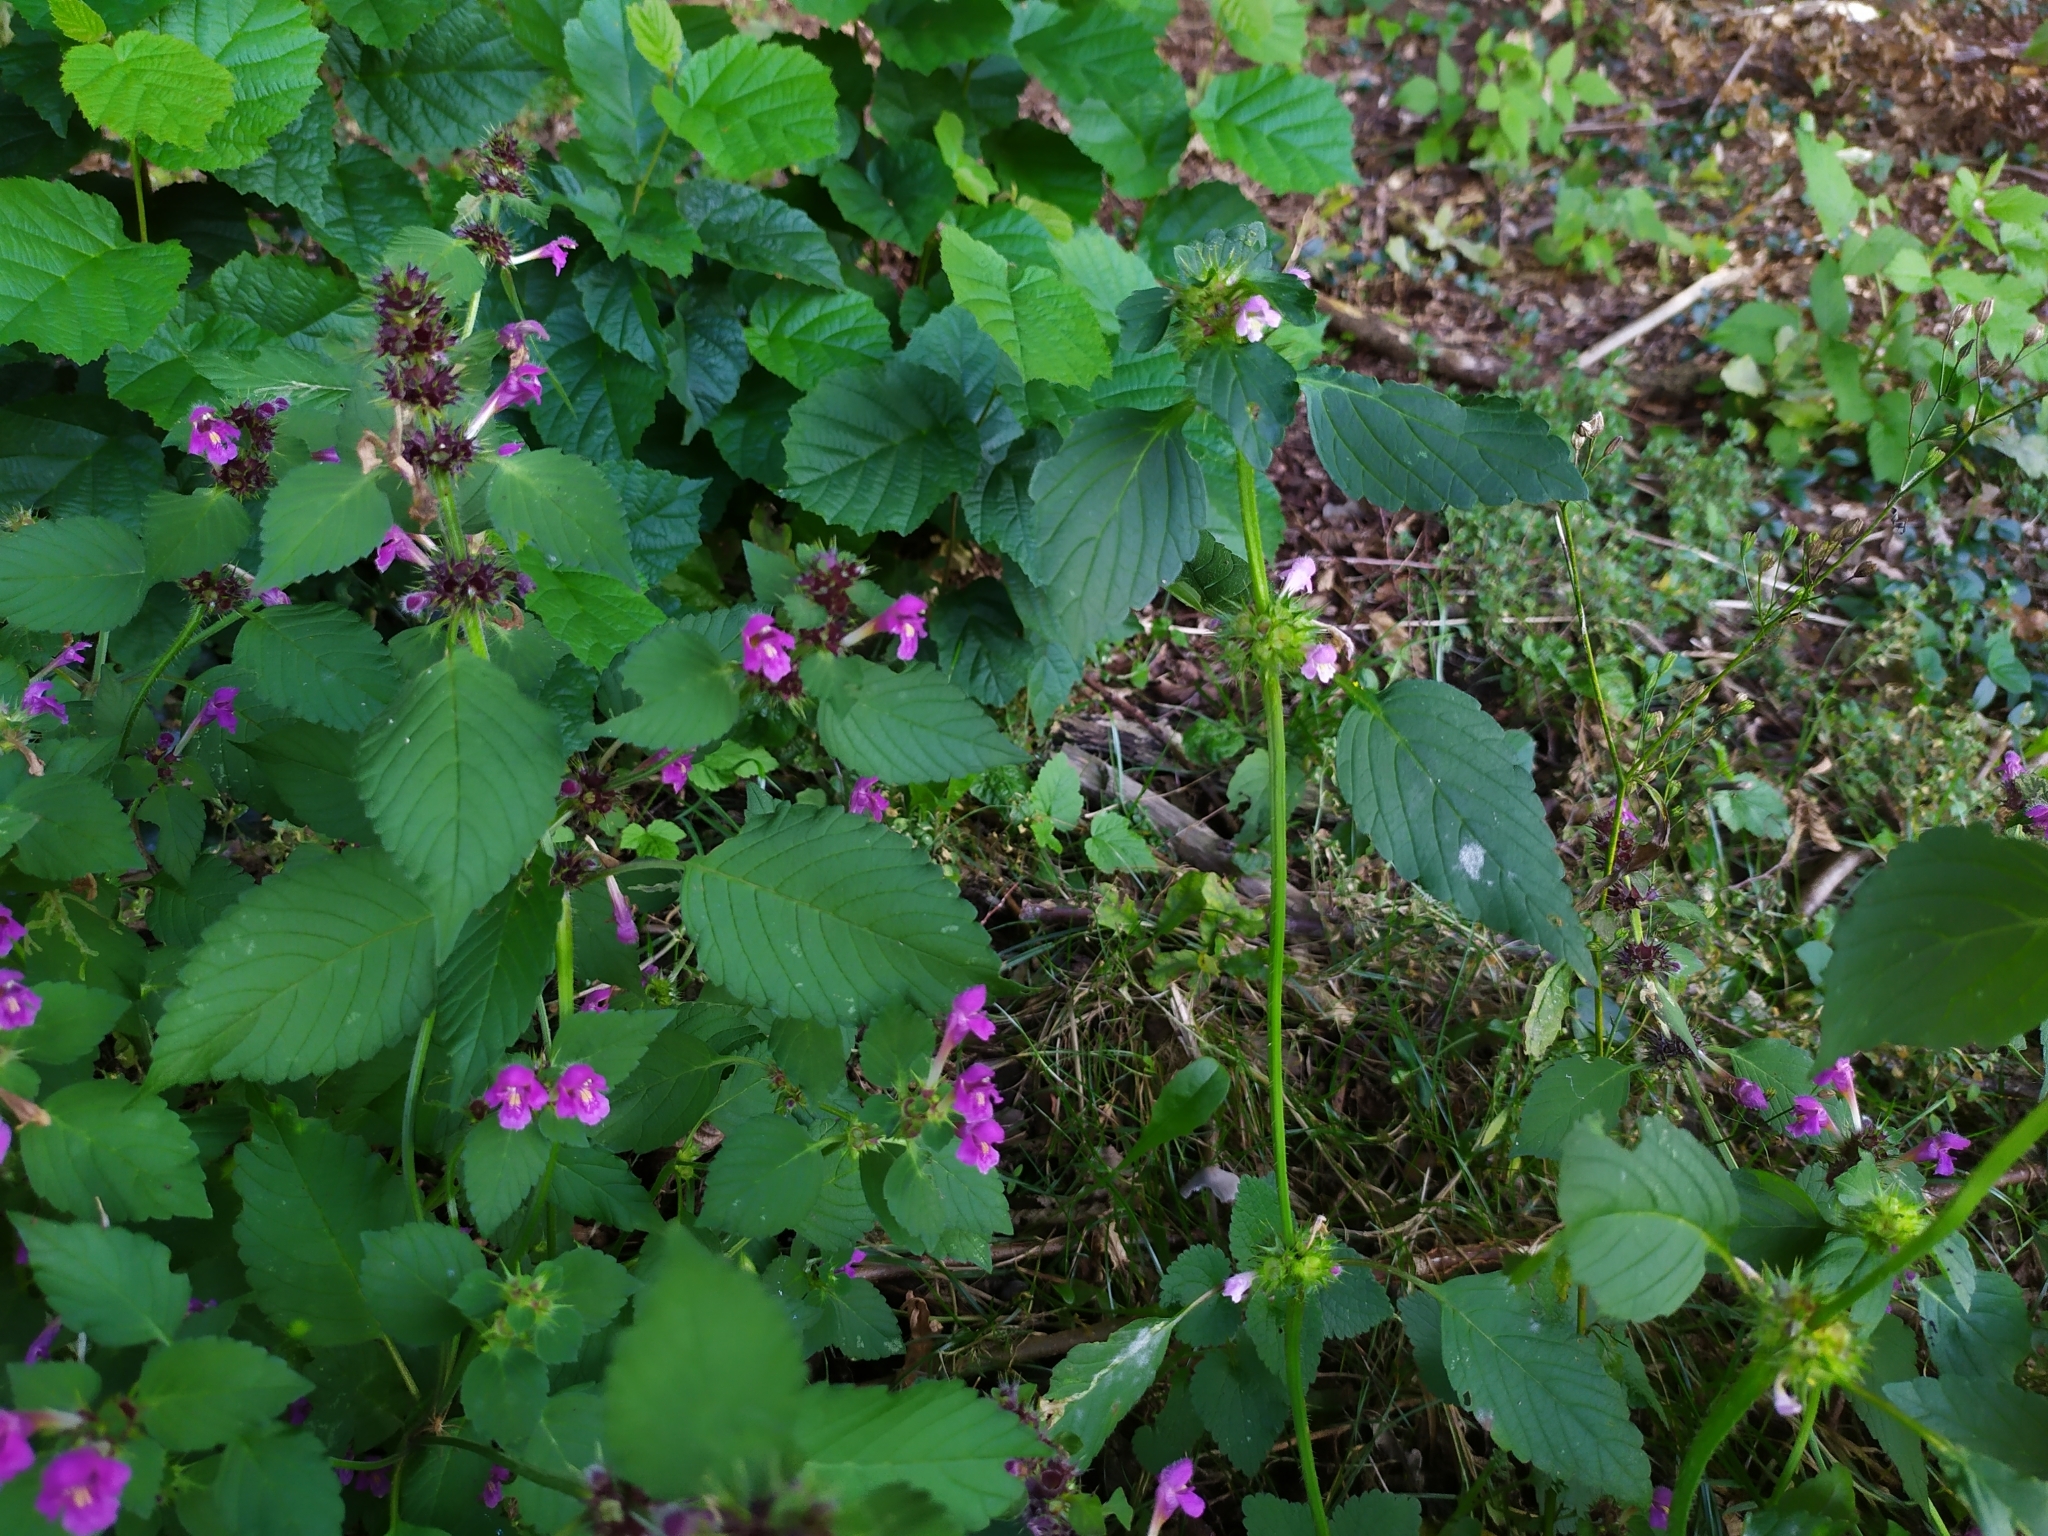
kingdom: Plantae
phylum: Tracheophyta
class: Magnoliopsida
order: Lamiales
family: Lamiaceae
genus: Galeopsis
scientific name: Galeopsis pubescens
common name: Downy hemp-nettle
